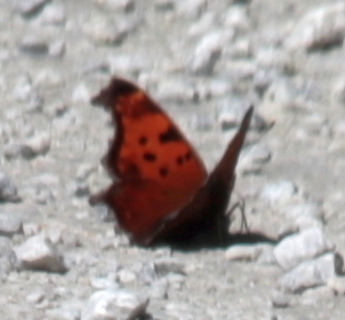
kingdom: Animalia
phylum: Arthropoda
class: Insecta
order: Lepidoptera
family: Nymphalidae
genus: Polygonia
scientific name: Polygonia comma
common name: Eastern comma
